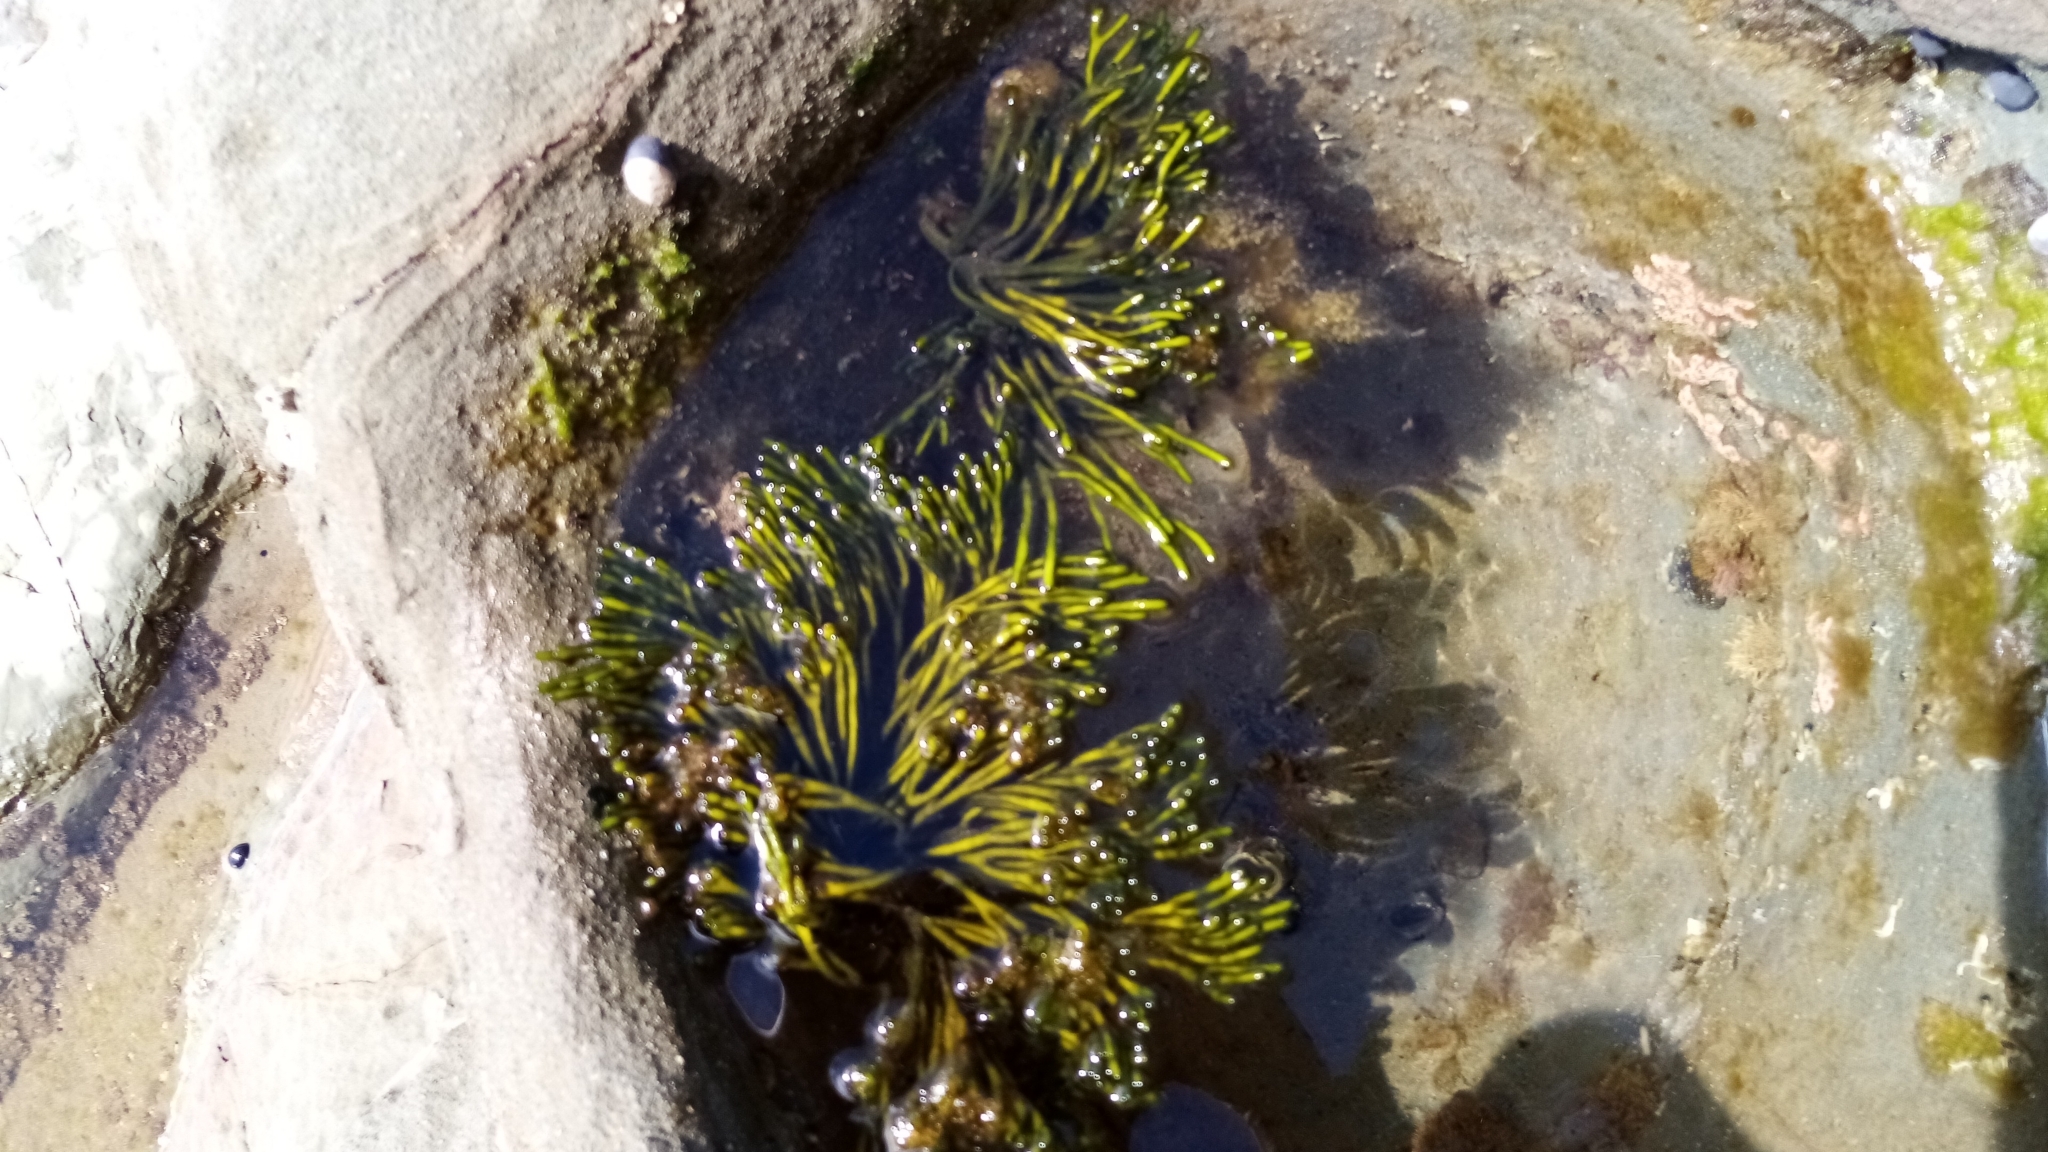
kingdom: Plantae
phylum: Chlorophyta
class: Ulvophyceae
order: Bryopsidales
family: Codiaceae
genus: Codium
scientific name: Codium fragile
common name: Dead man's fingers
